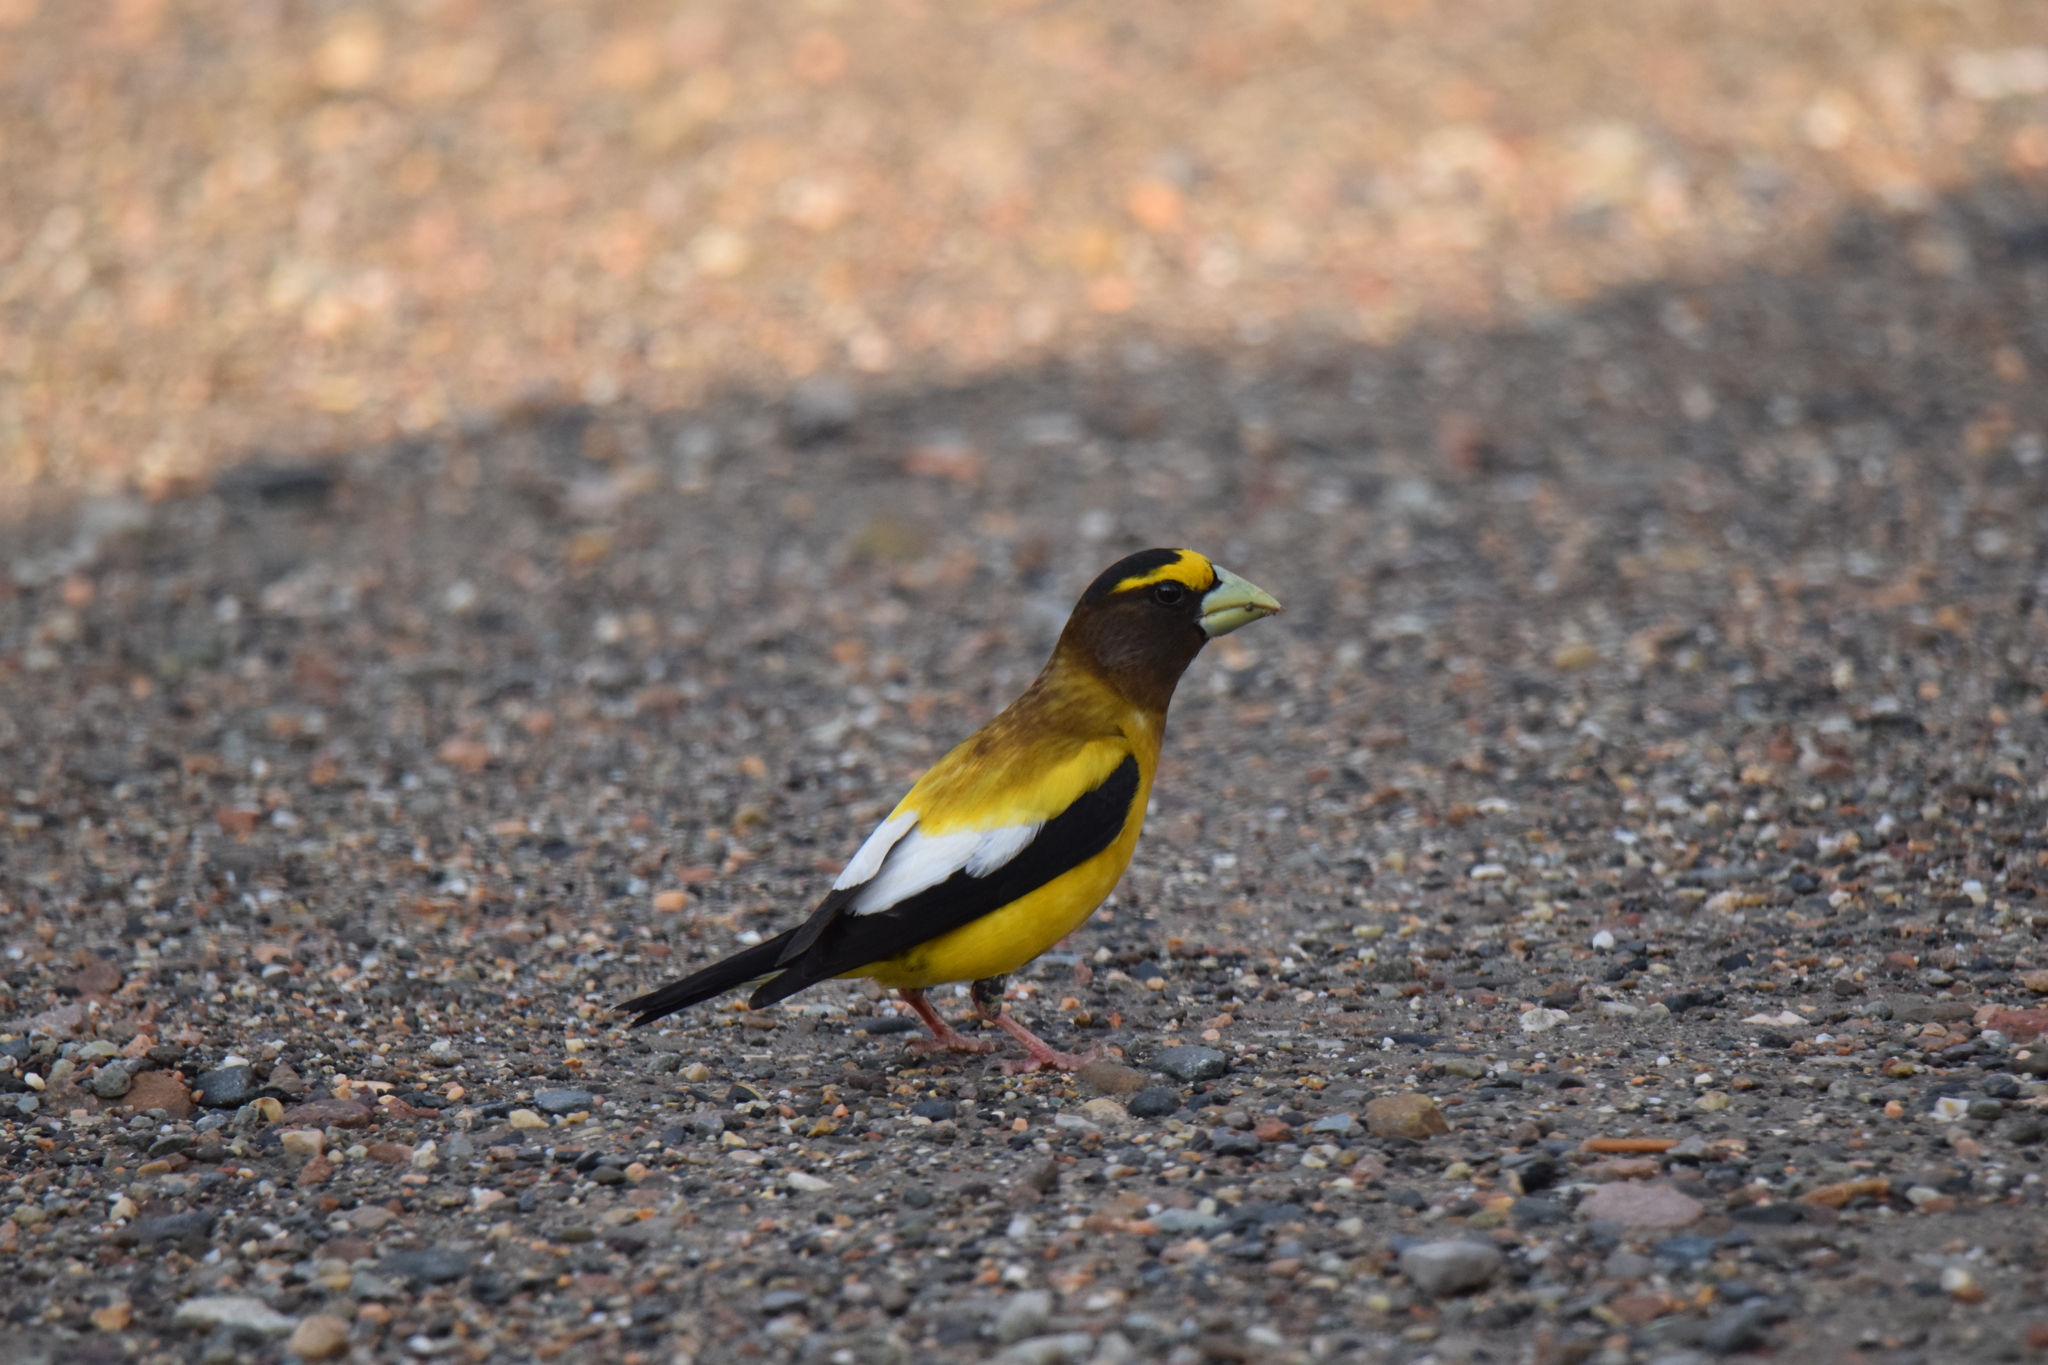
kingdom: Animalia
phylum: Chordata
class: Aves
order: Passeriformes
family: Fringillidae
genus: Hesperiphona
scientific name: Hesperiphona vespertina
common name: Evening grosbeak
